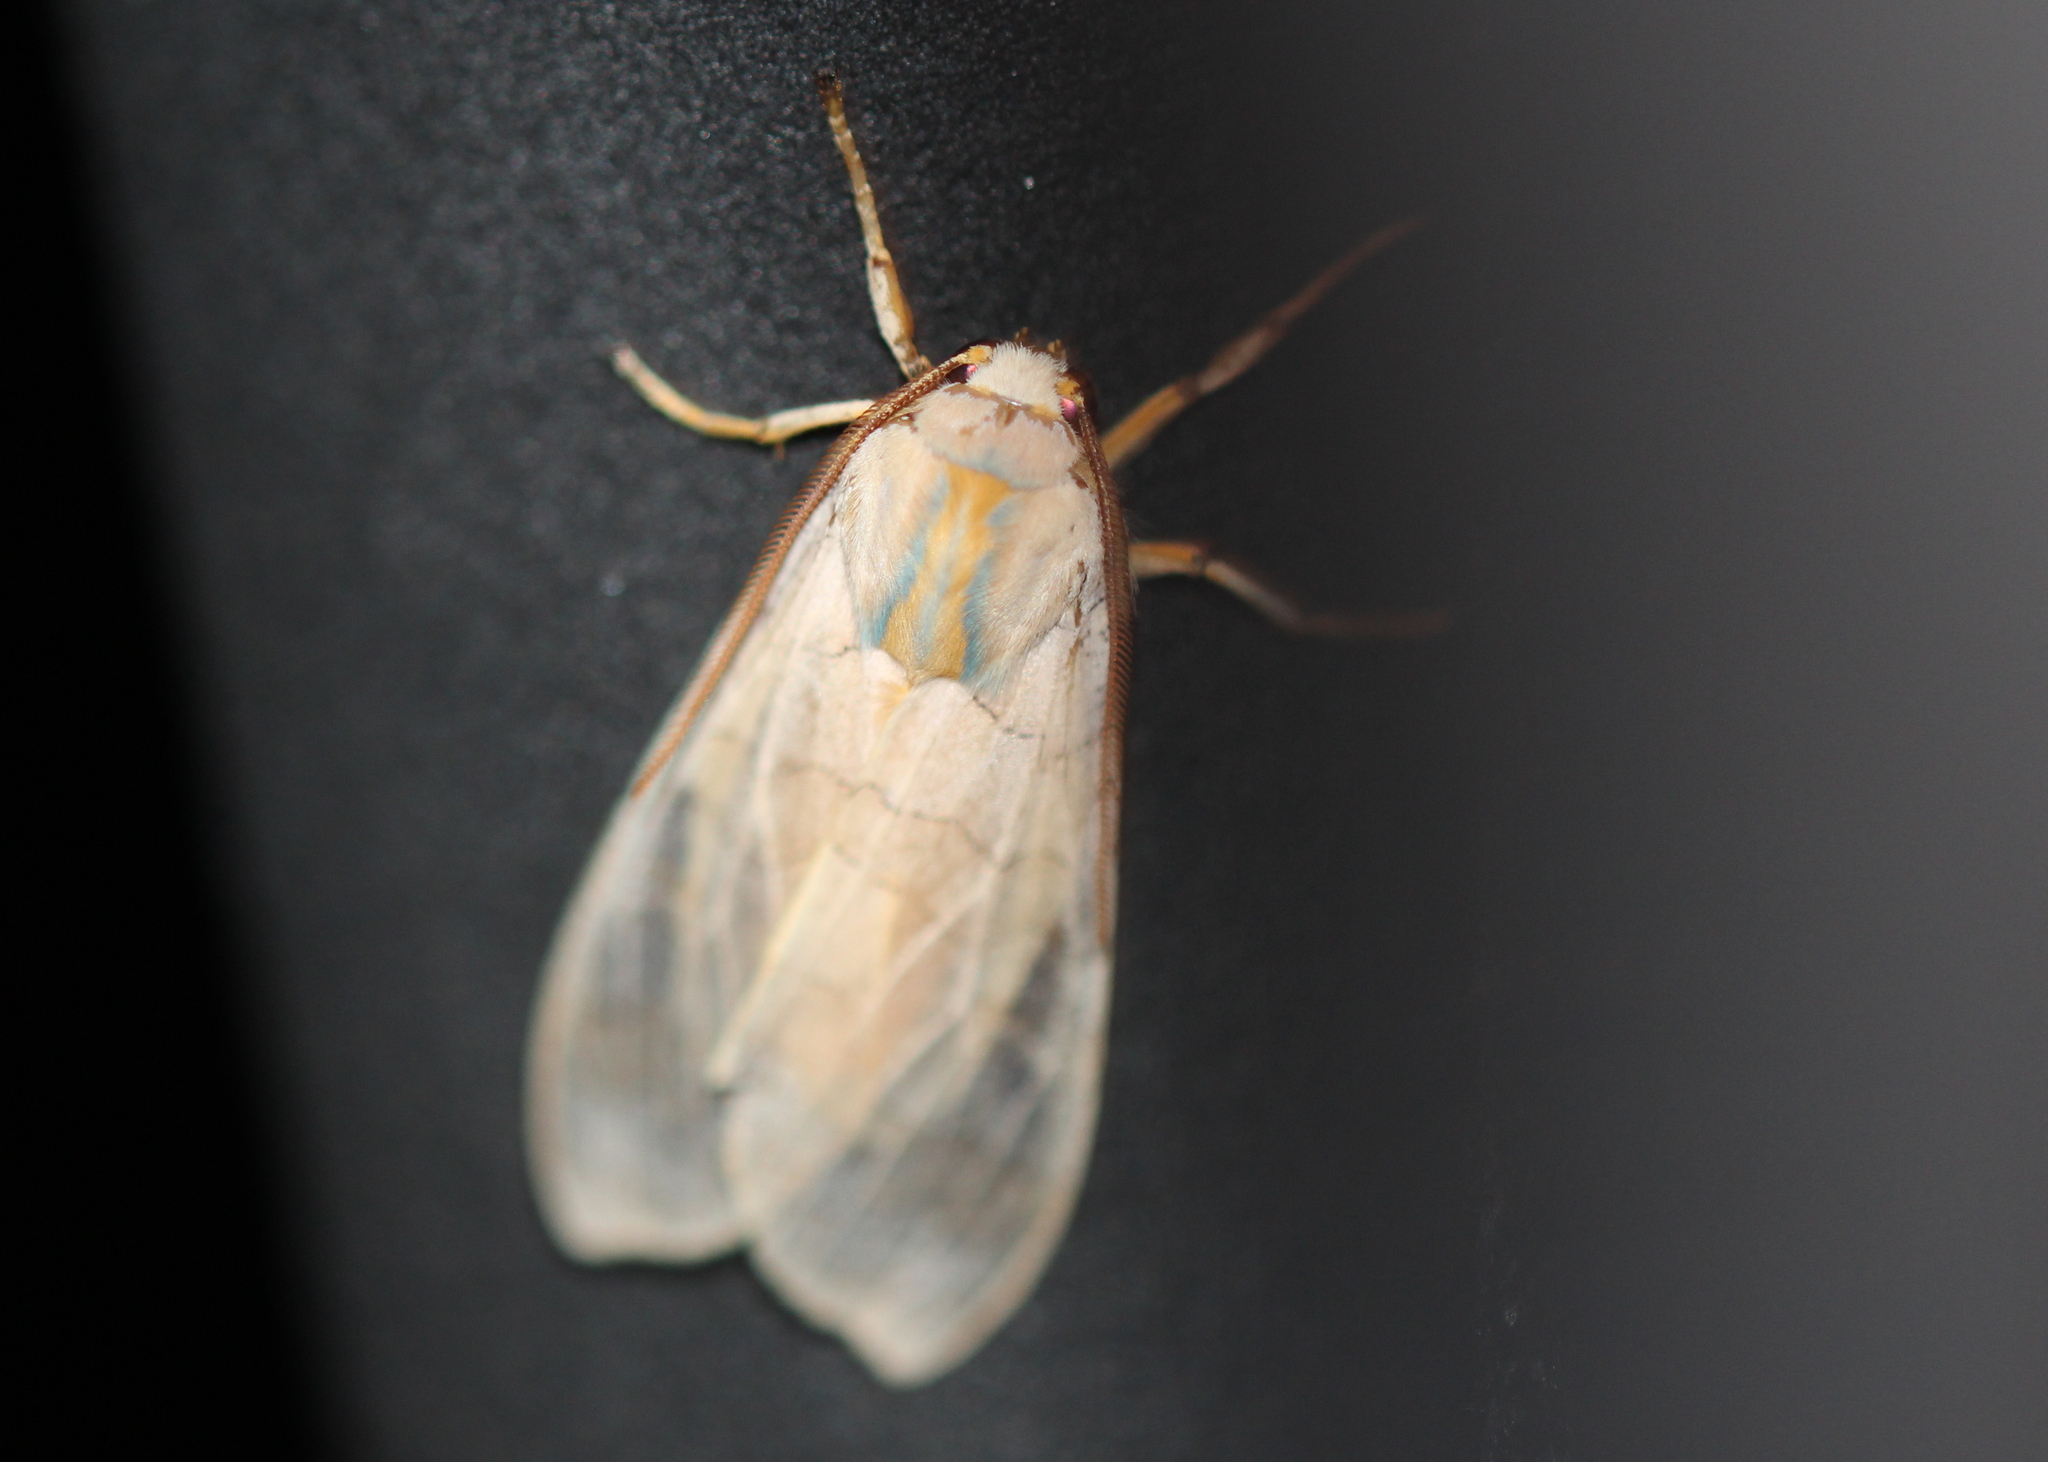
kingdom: Animalia
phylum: Arthropoda
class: Insecta
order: Lepidoptera
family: Erebidae
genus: Halysidota
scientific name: Halysidota
